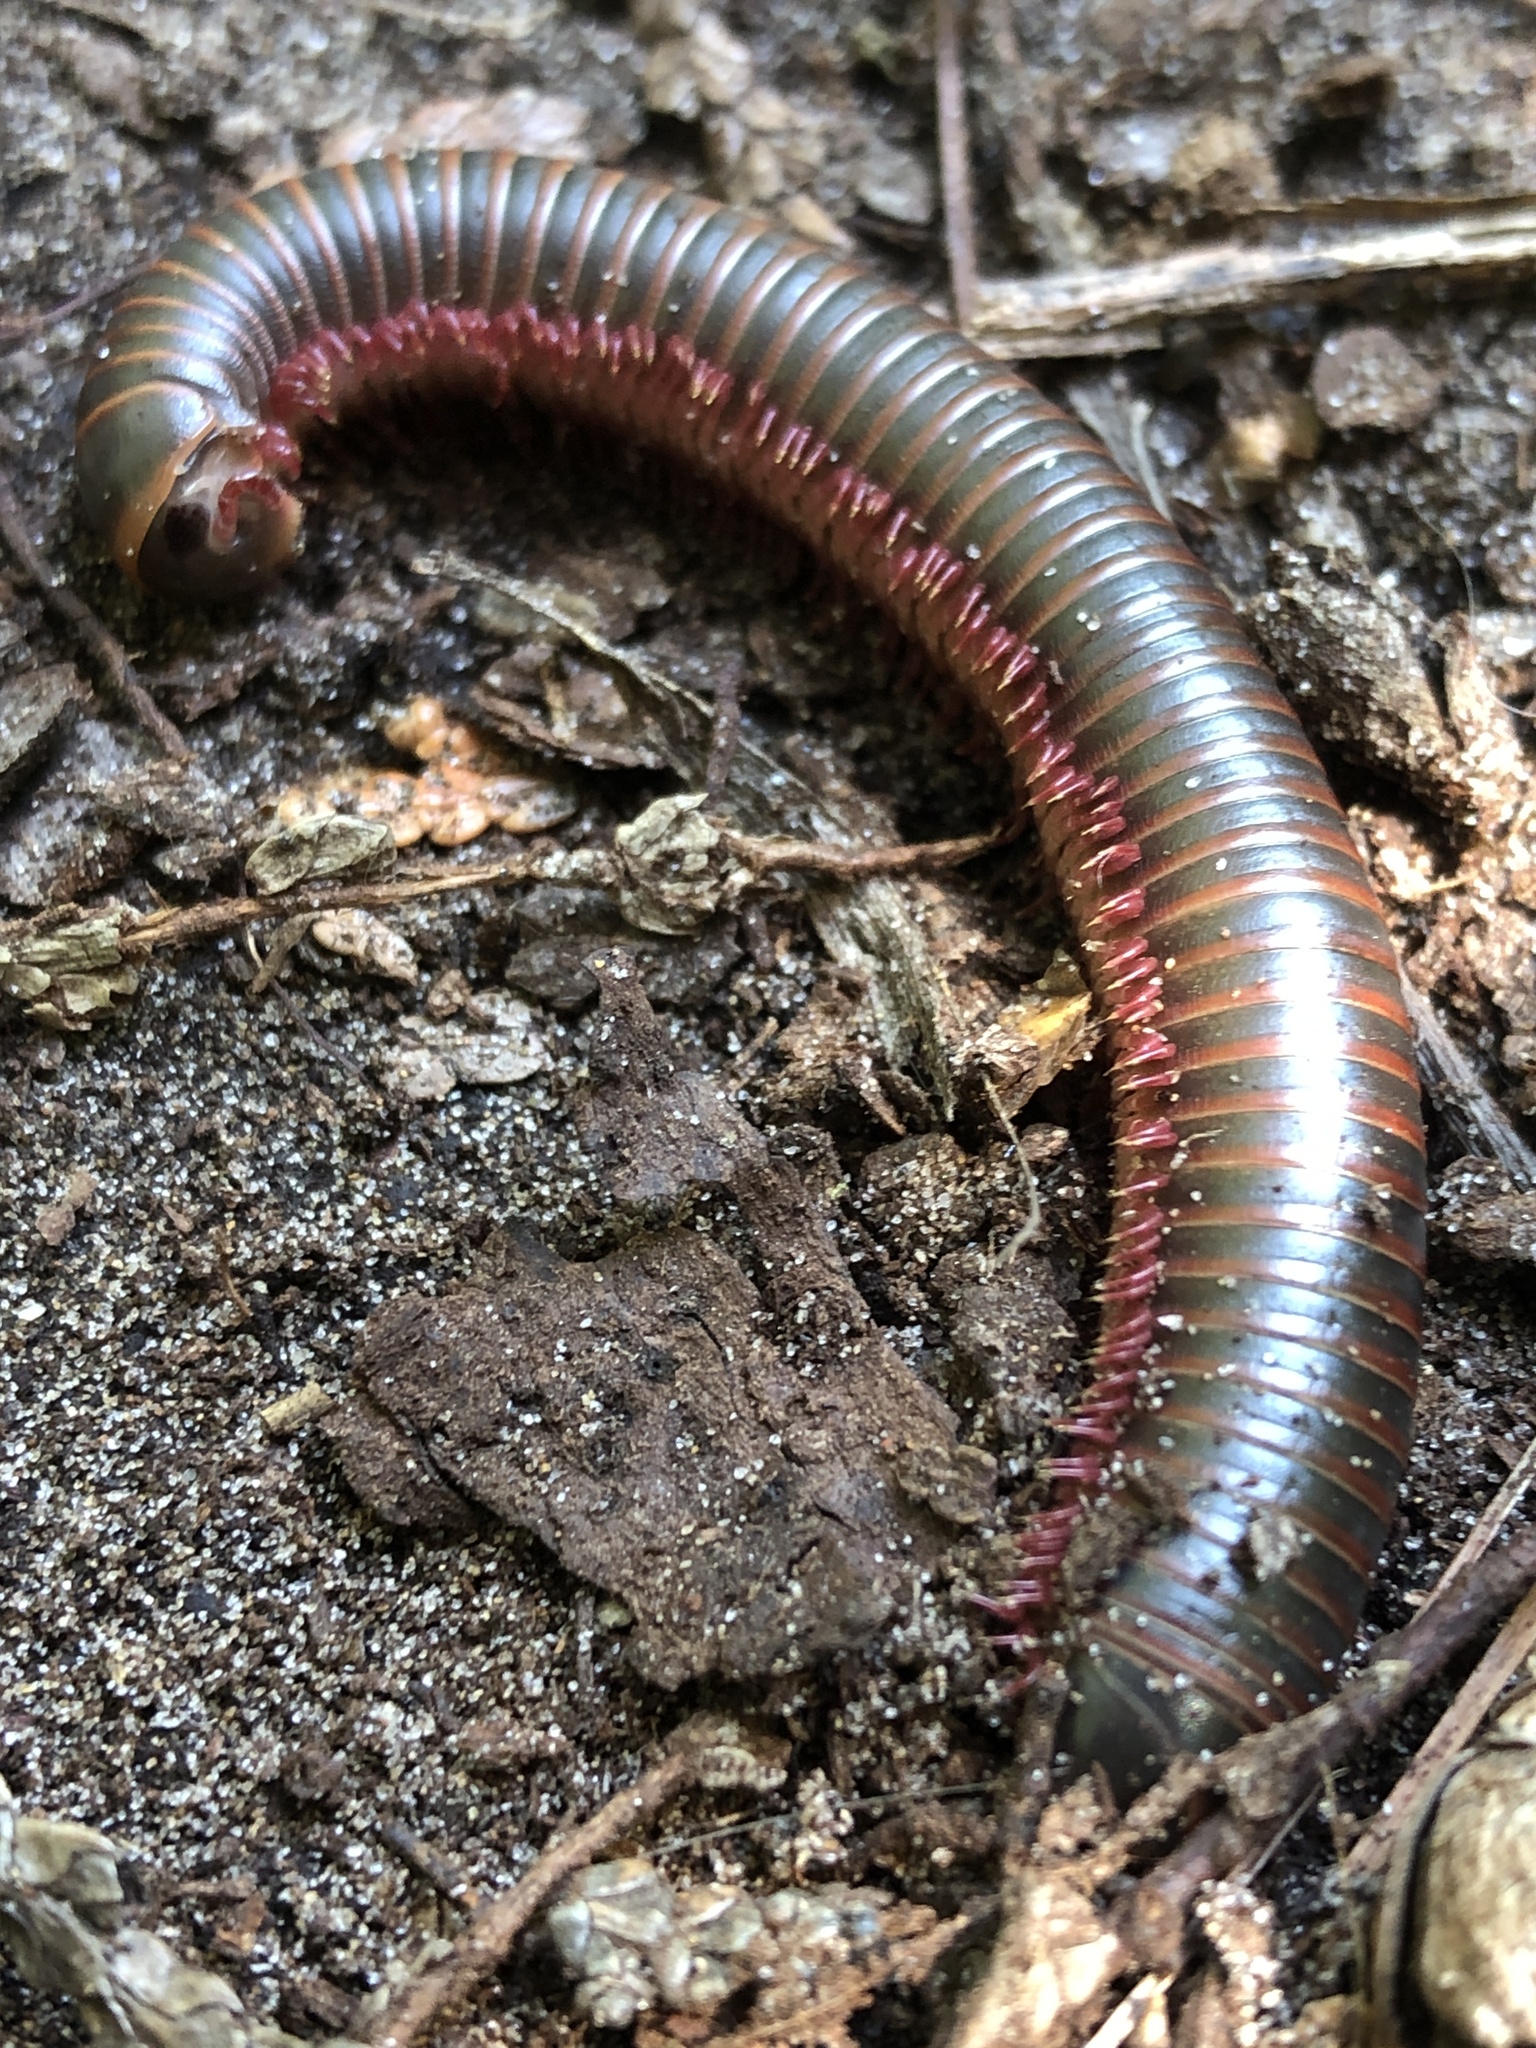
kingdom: Animalia
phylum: Arthropoda
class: Diplopoda
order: Spirobolida
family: Spirobolidae
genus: Narceus
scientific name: Narceus americanus
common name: American giant millipede
